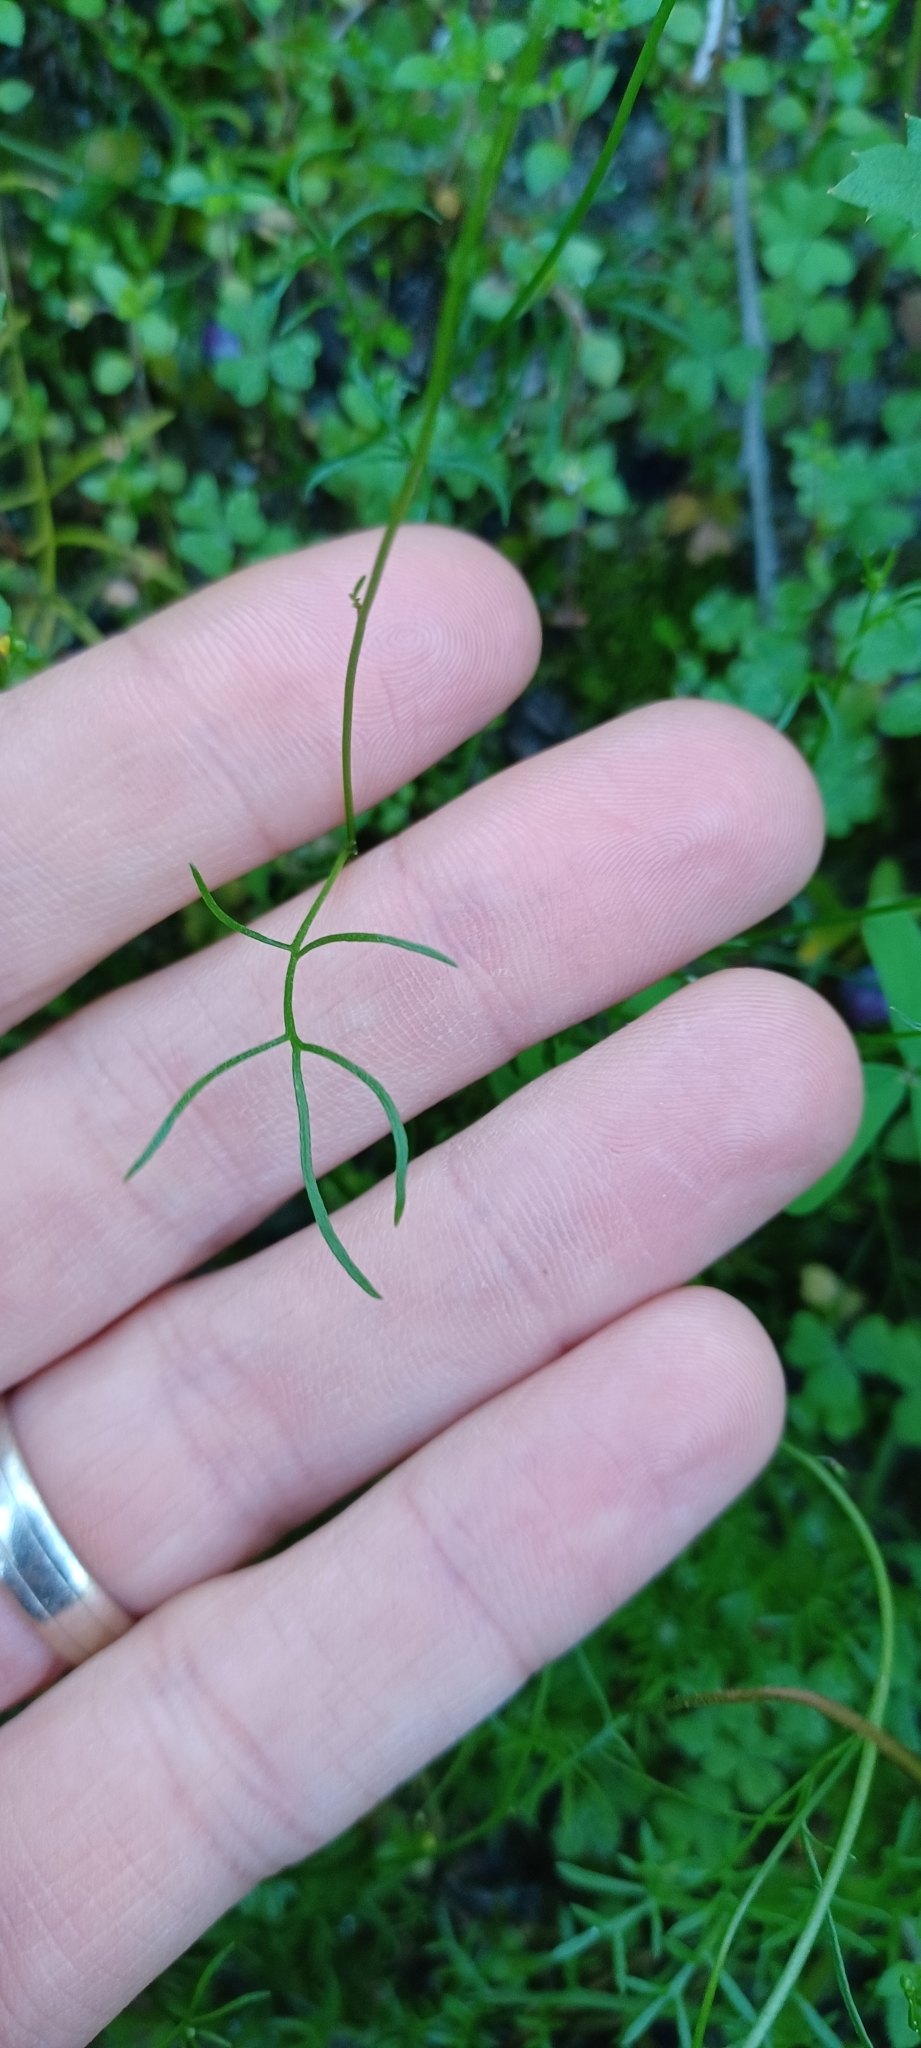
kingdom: Plantae
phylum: Tracheophyta
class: Magnoliopsida
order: Brassicales
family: Brassicaceae
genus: Heliophila
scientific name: Heliophila pectinata
